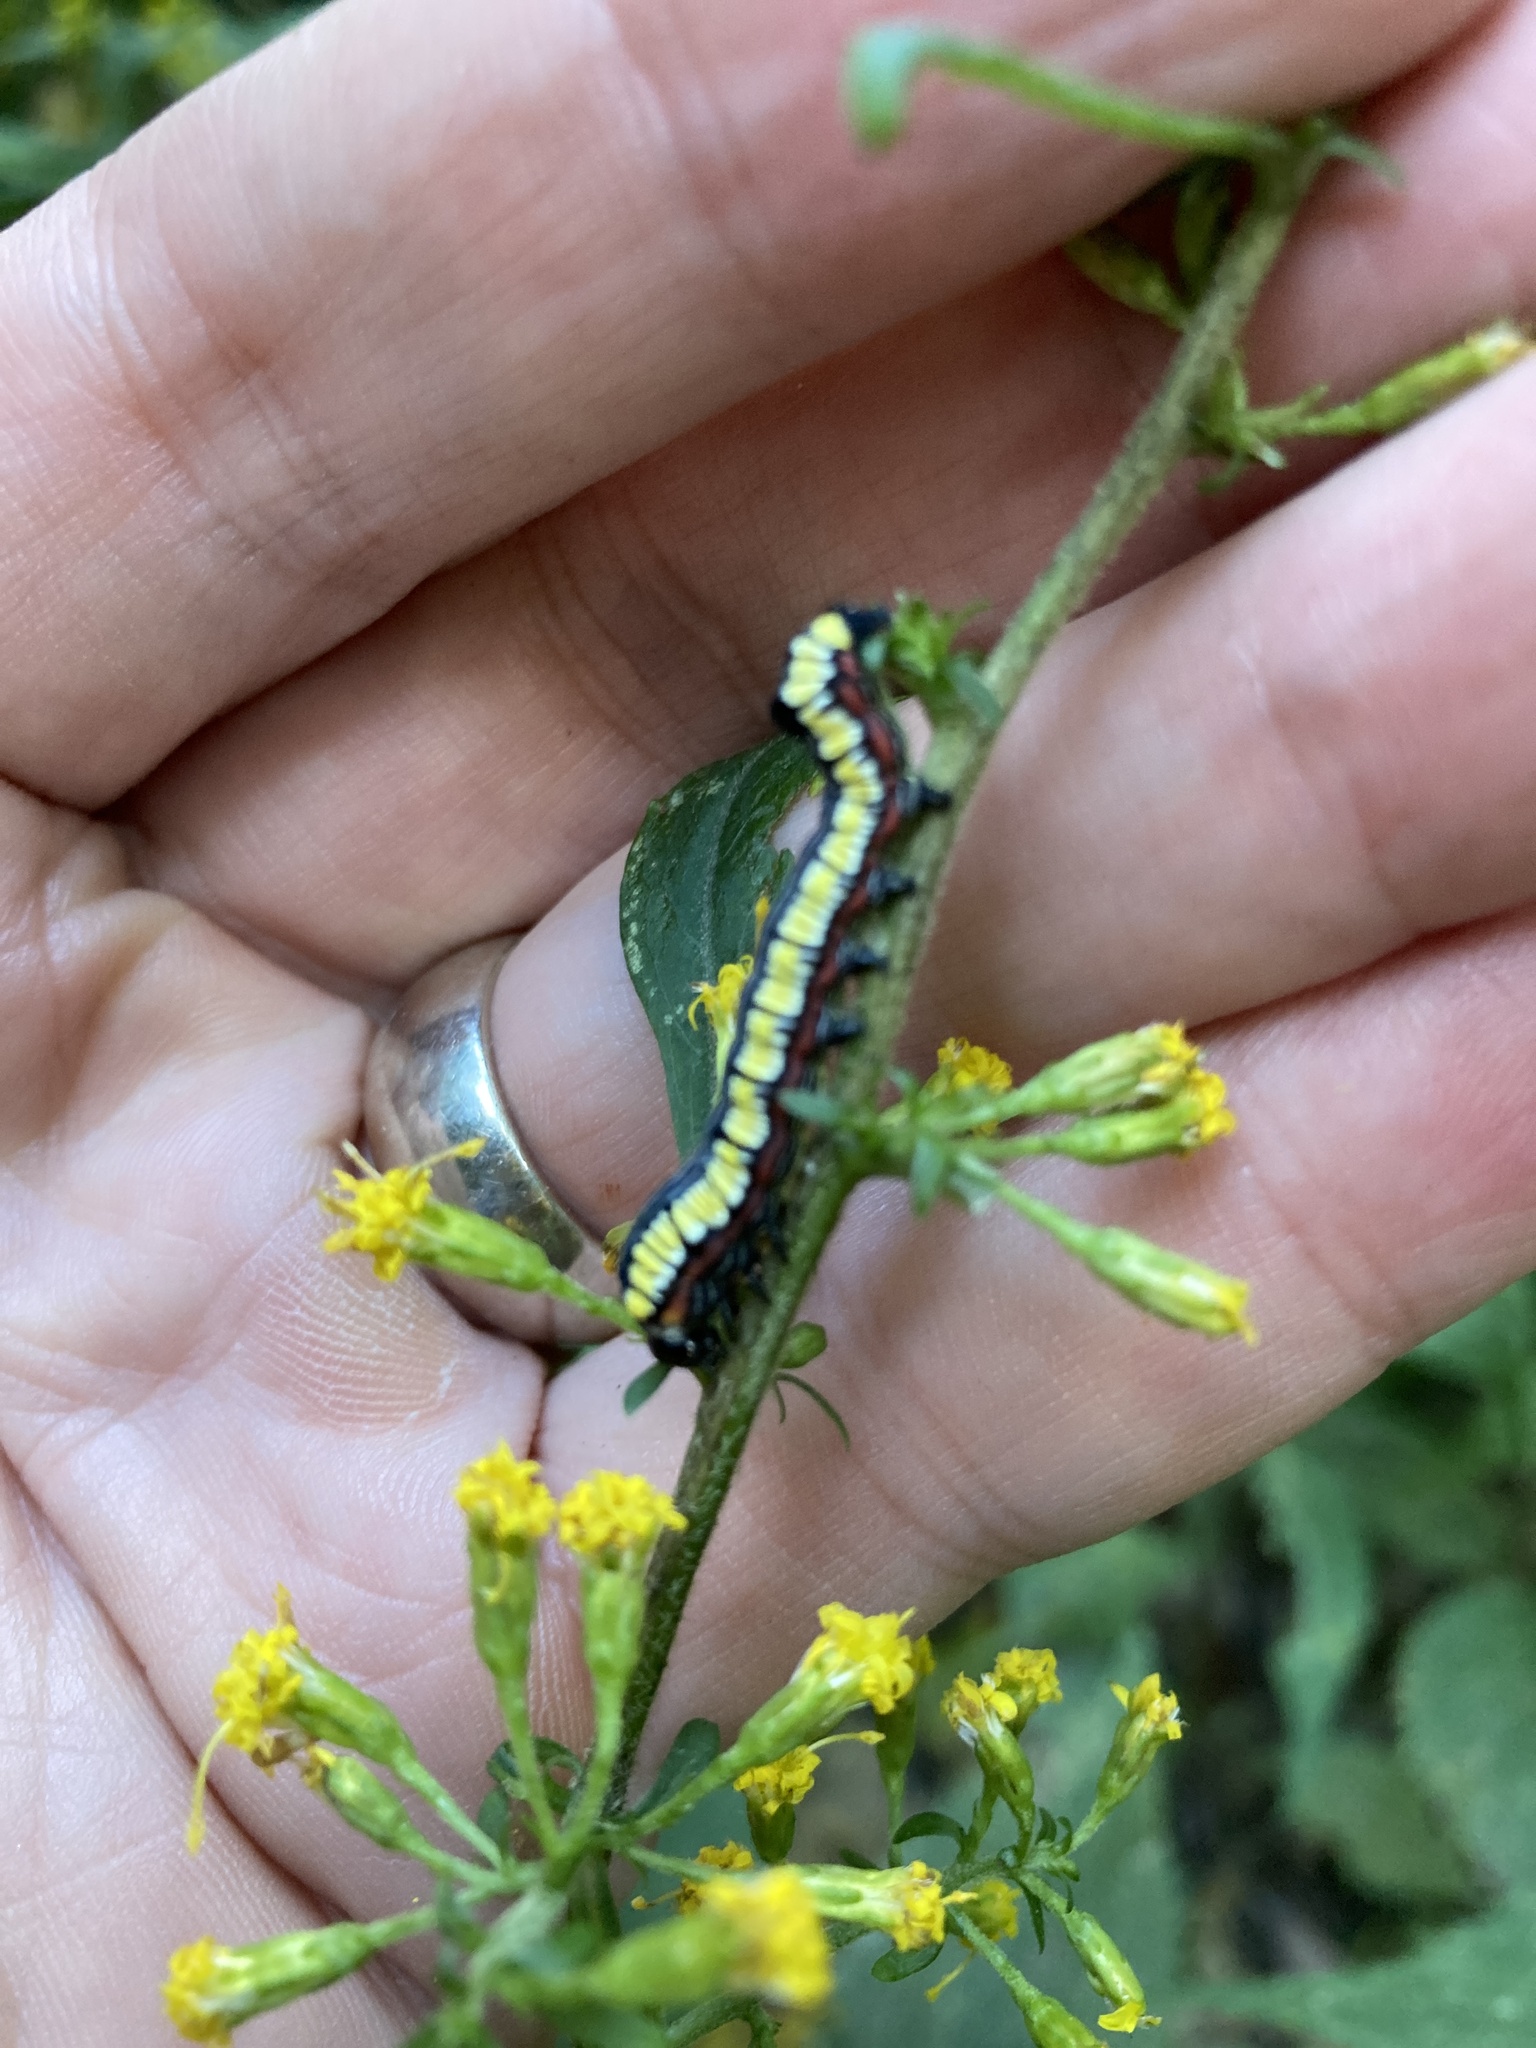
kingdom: Animalia
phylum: Arthropoda
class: Insecta
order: Lepidoptera
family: Noctuidae
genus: Cucullia
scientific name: Cucullia convexipennis
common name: Brown-hooded owlet
